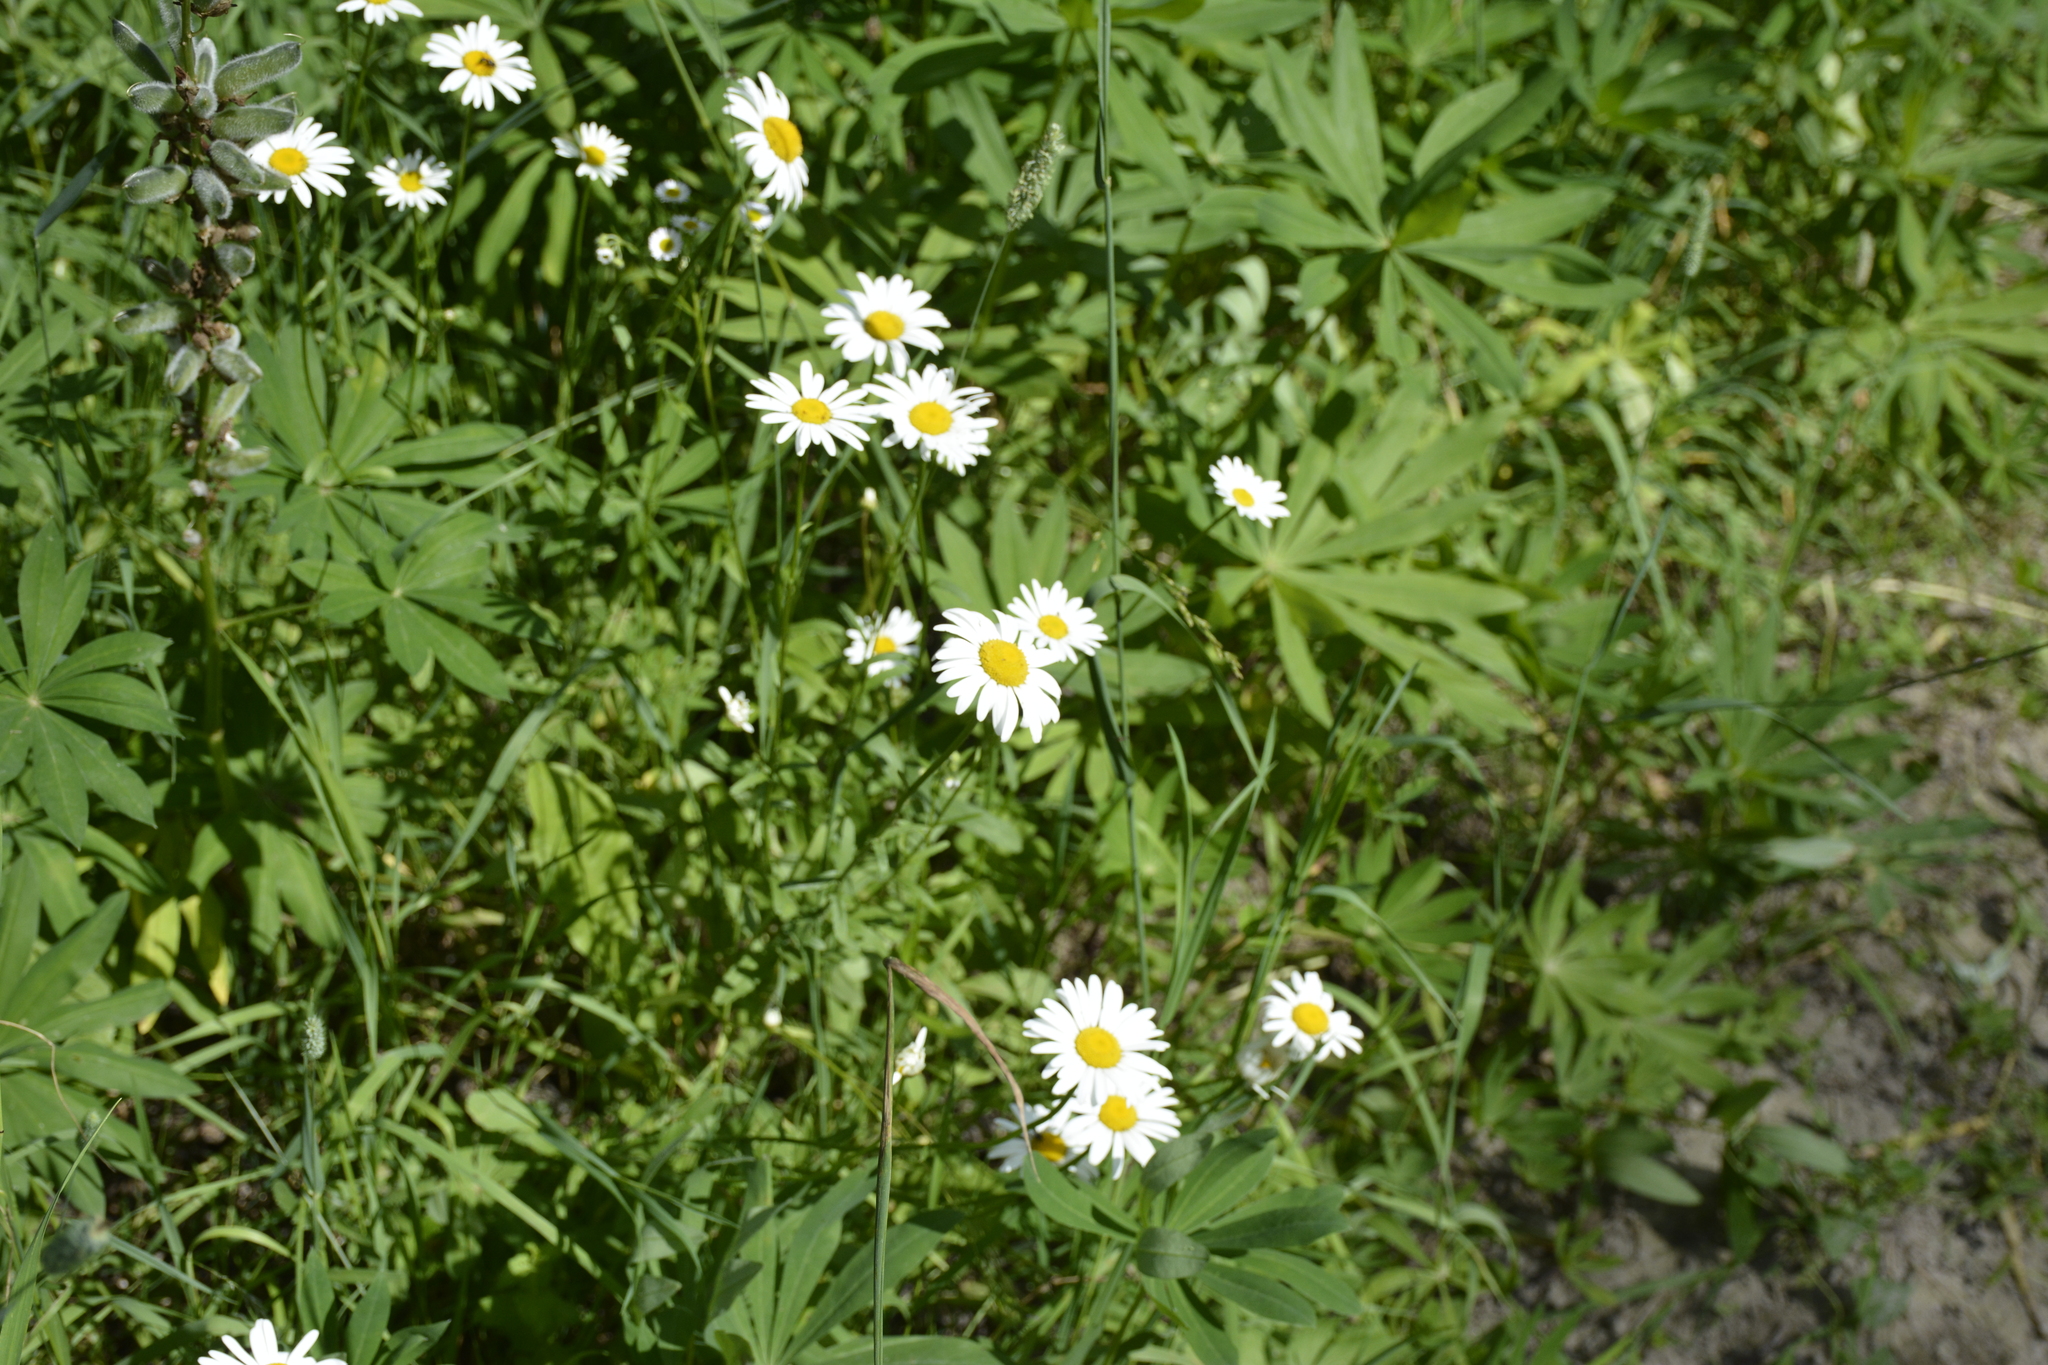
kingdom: Plantae
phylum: Tracheophyta
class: Magnoliopsida
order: Asterales
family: Asteraceae
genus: Leucanthemum
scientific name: Leucanthemum vulgare
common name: Oxeye daisy
